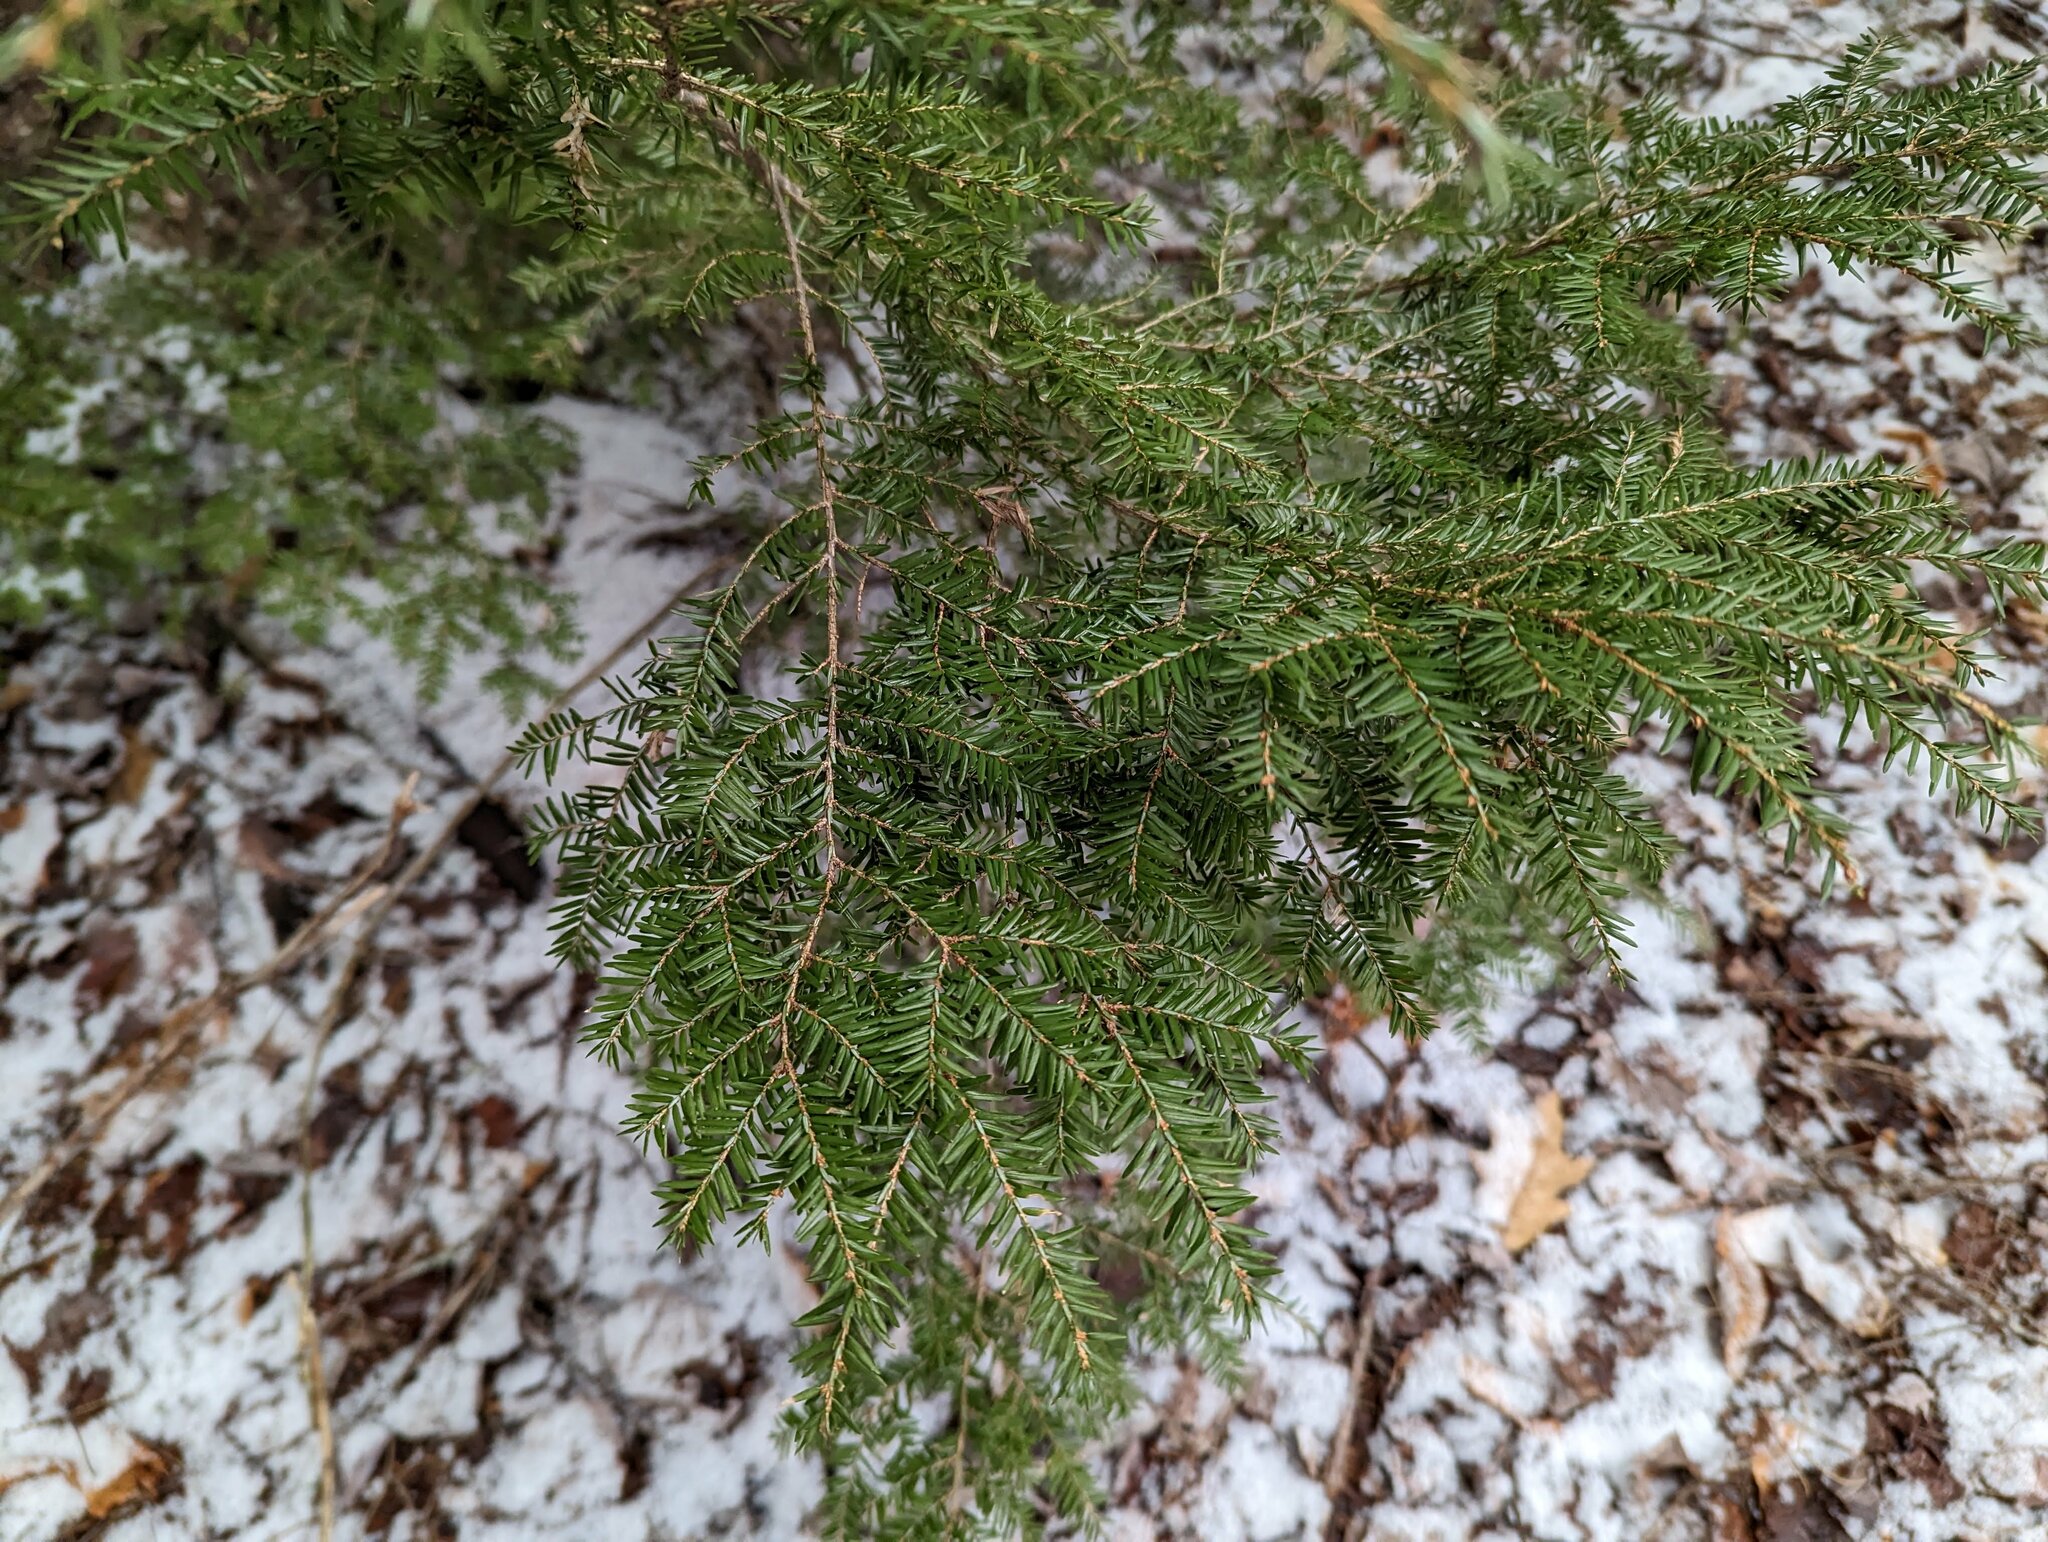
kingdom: Plantae
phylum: Tracheophyta
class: Pinopsida
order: Pinales
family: Pinaceae
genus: Tsuga
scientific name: Tsuga canadensis
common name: Eastern hemlock
